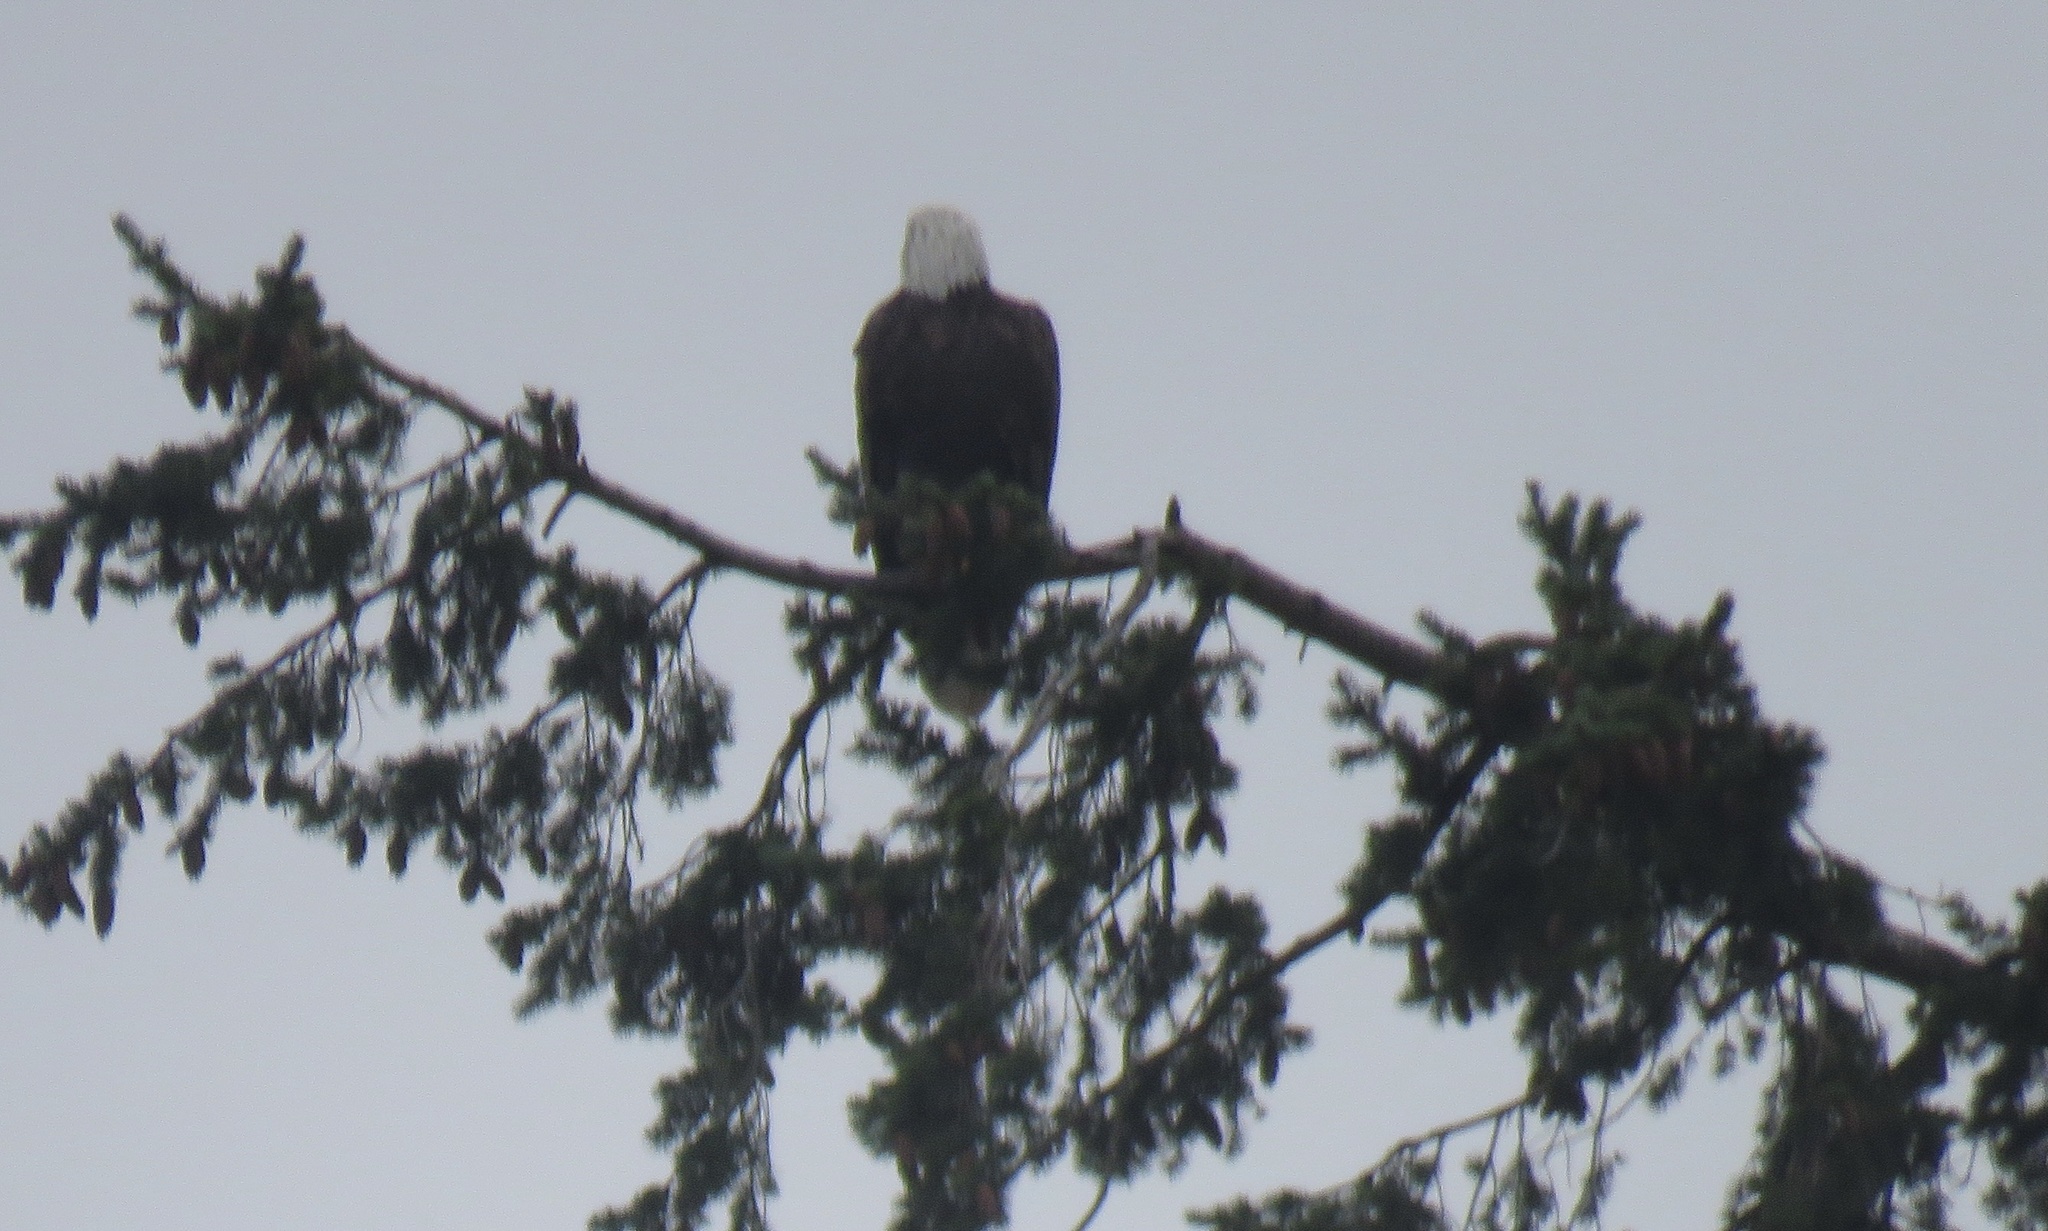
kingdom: Animalia
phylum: Chordata
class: Aves
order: Accipitriformes
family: Accipitridae
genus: Haliaeetus
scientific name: Haliaeetus leucocephalus
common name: Bald eagle
